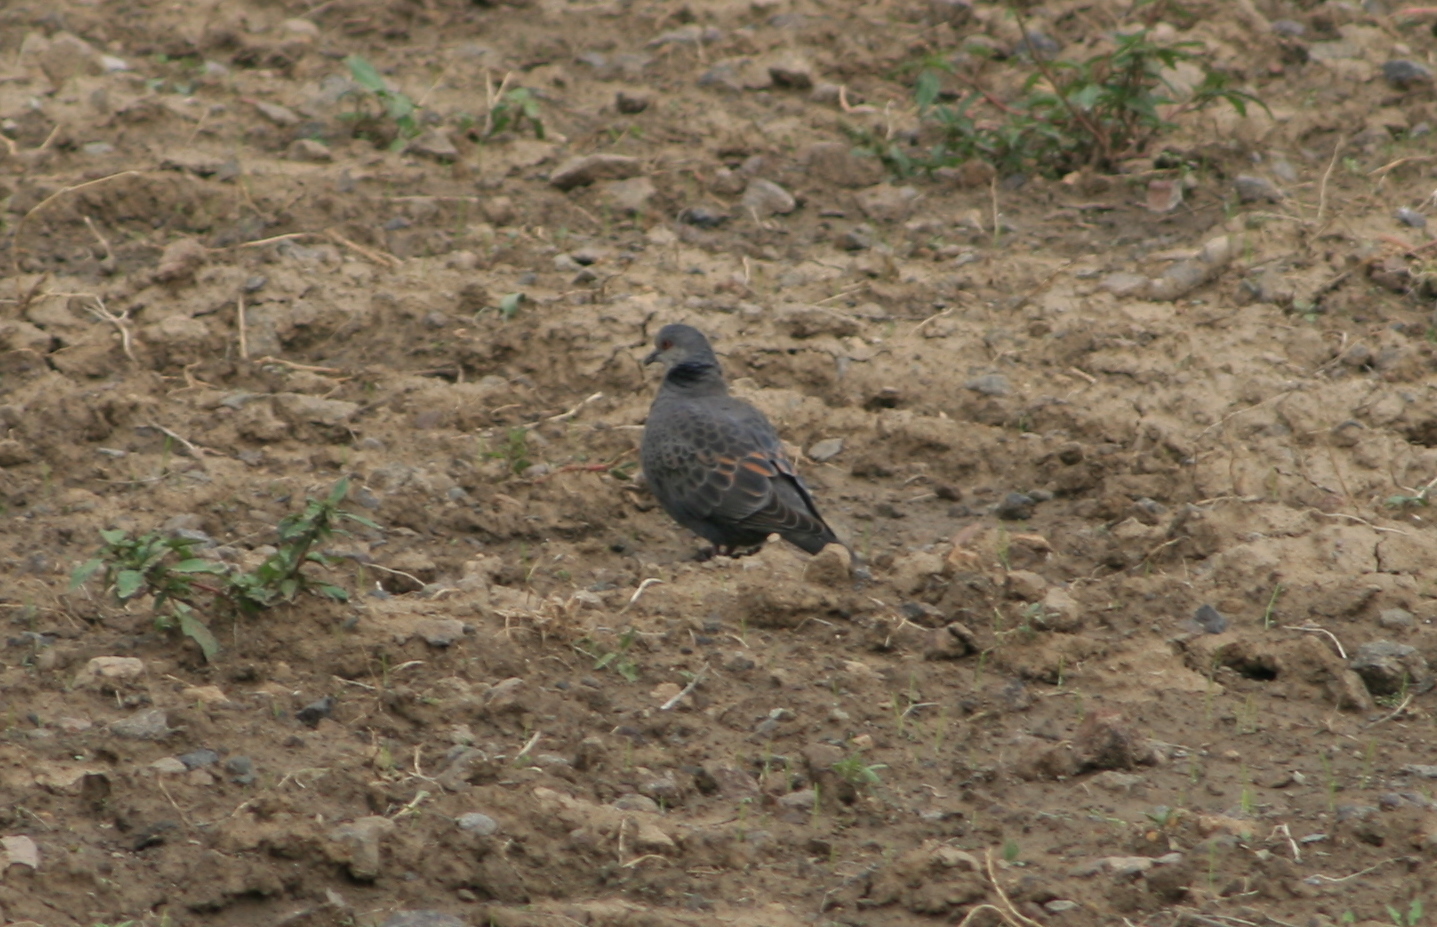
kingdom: Animalia
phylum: Chordata
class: Aves
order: Columbiformes
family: Columbidae
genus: Streptopelia
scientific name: Streptopelia lugens
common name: Dusky turtle dove
